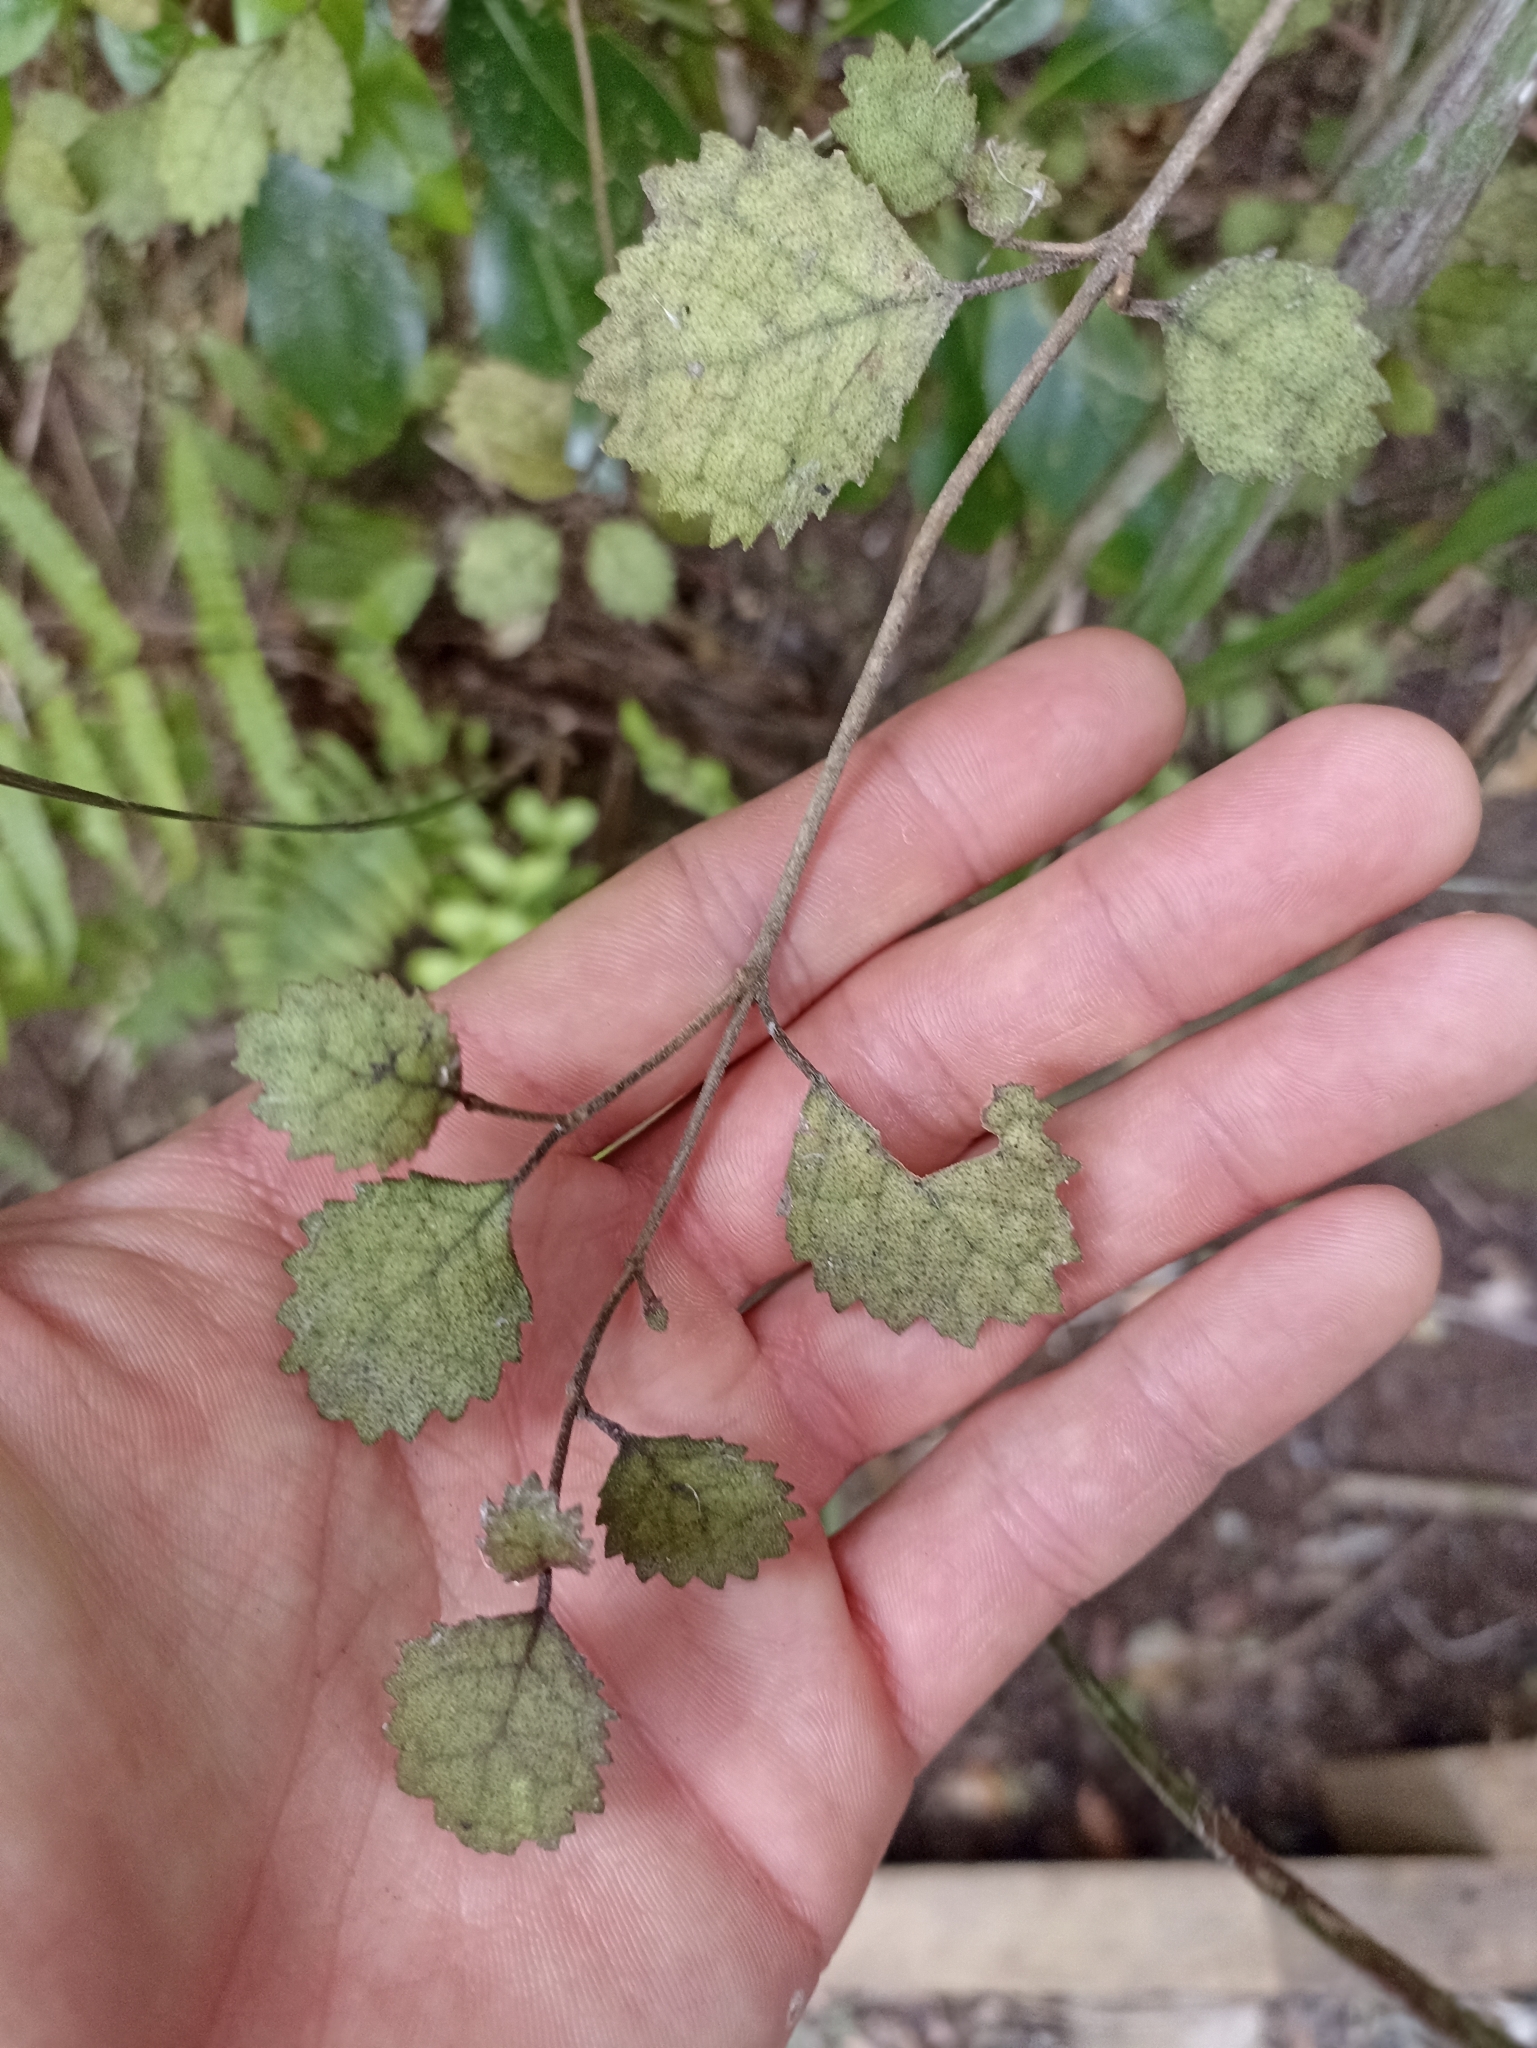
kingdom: Plantae
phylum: Tracheophyta
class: Magnoliopsida
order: Lamiales
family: Gesneriaceae
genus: Rhabdothamnus
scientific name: Rhabdothamnus solandri
